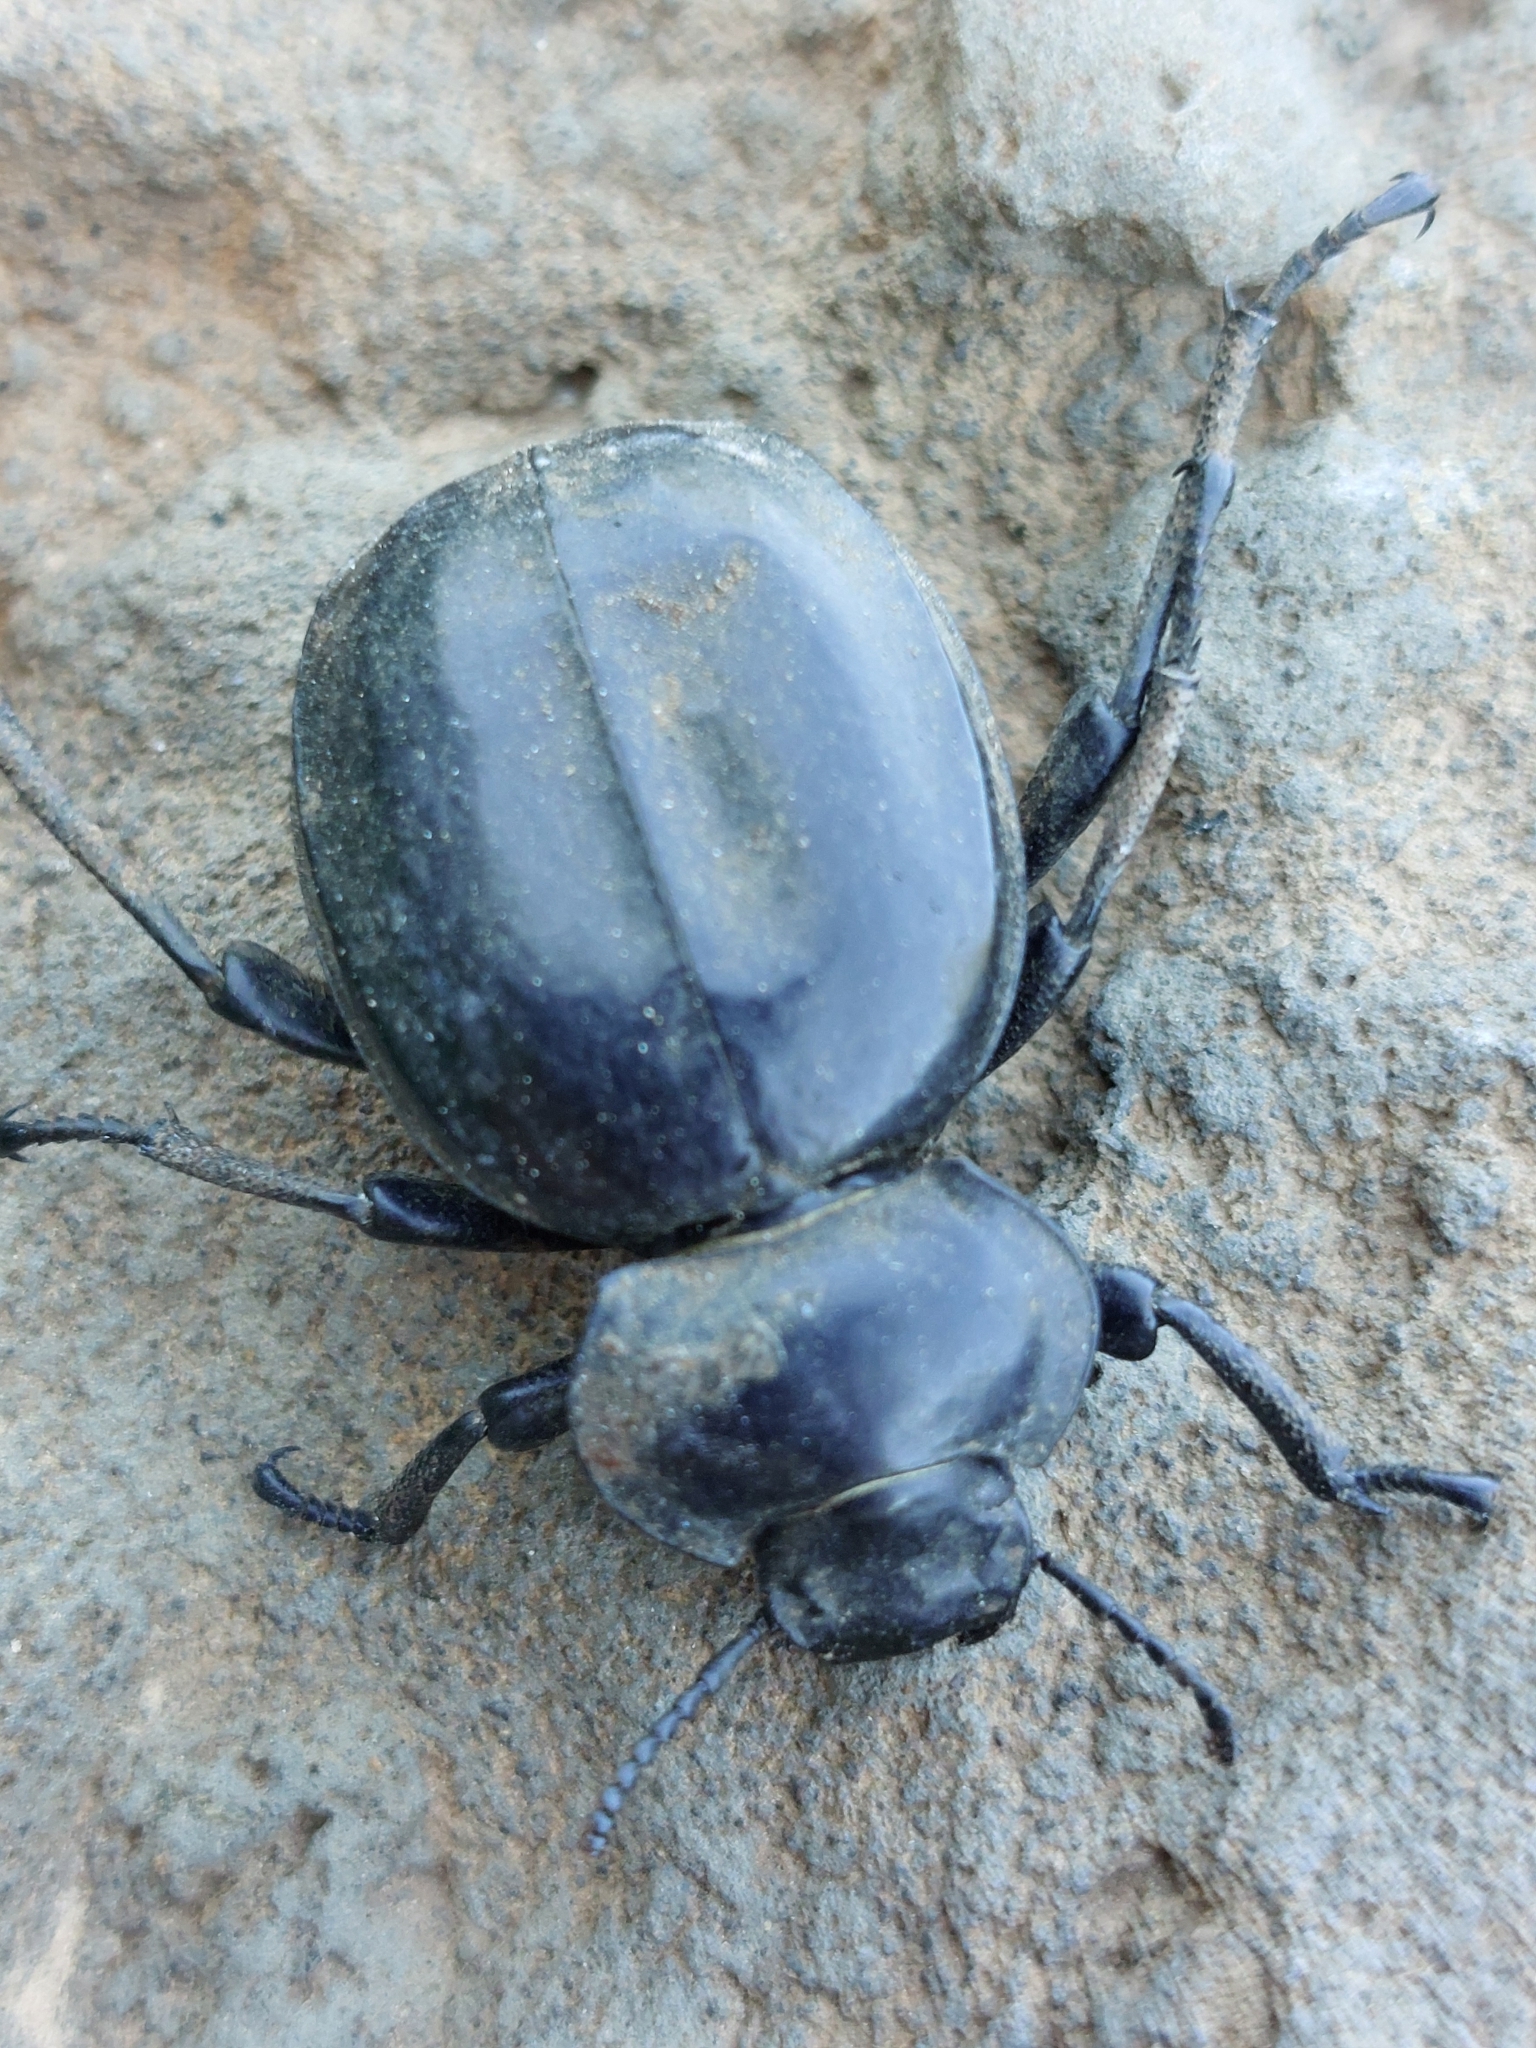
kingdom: Animalia
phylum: Arthropoda
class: Insecta
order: Coleoptera
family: Tenebrionidae
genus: Morica
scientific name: Morica planata
